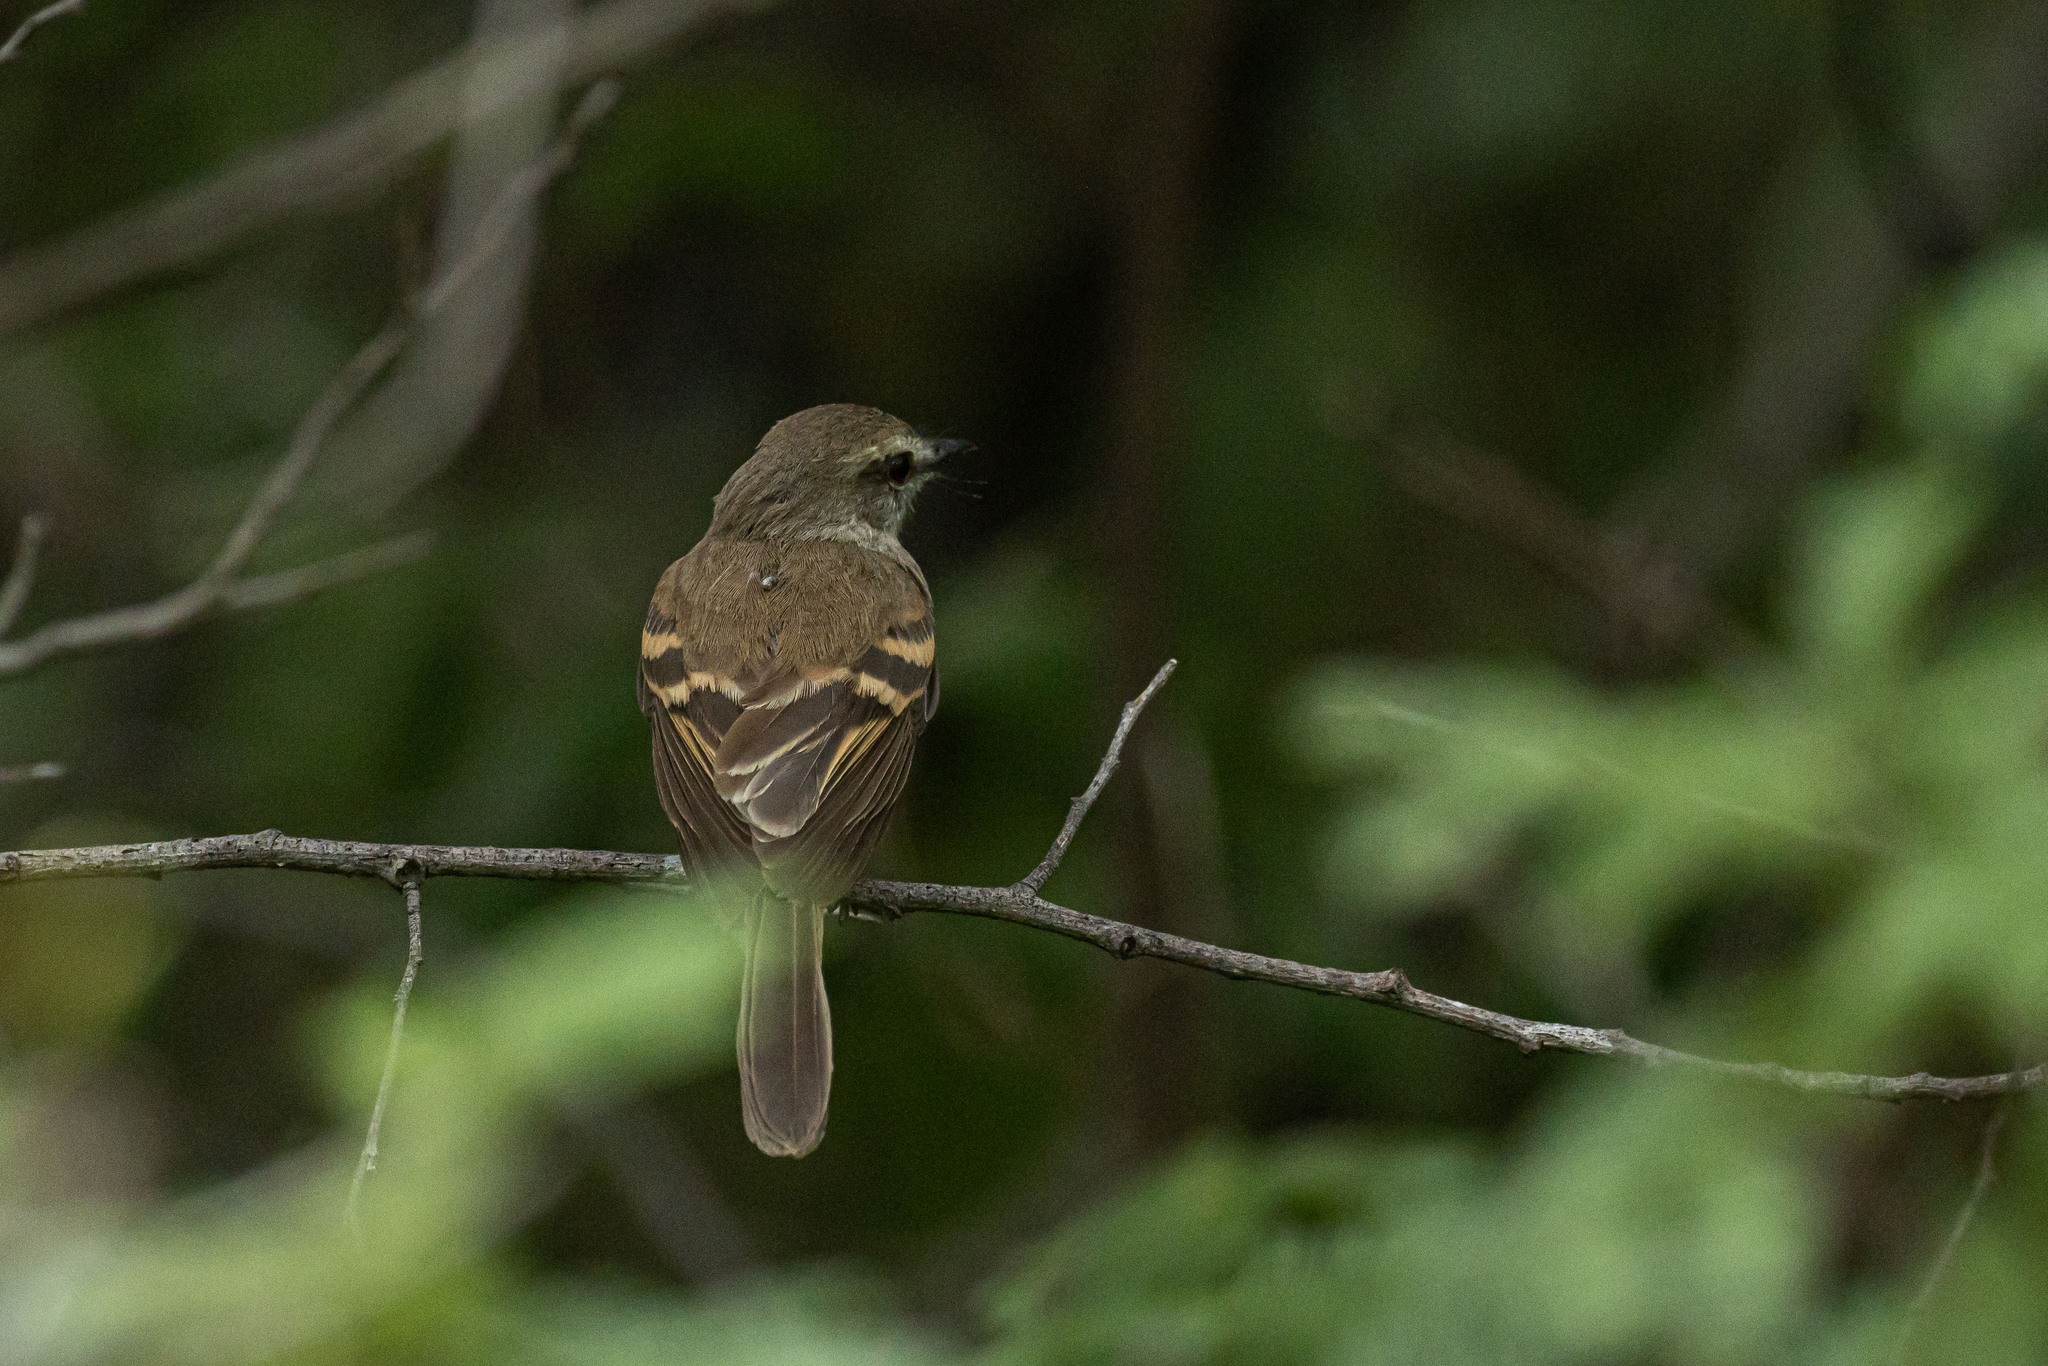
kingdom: Animalia
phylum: Chordata
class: Aves
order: Passeriformes
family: Tyrannidae
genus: Cnemotriccus
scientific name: Cnemotriccus fuscatus
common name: Fuscous flycatcher
